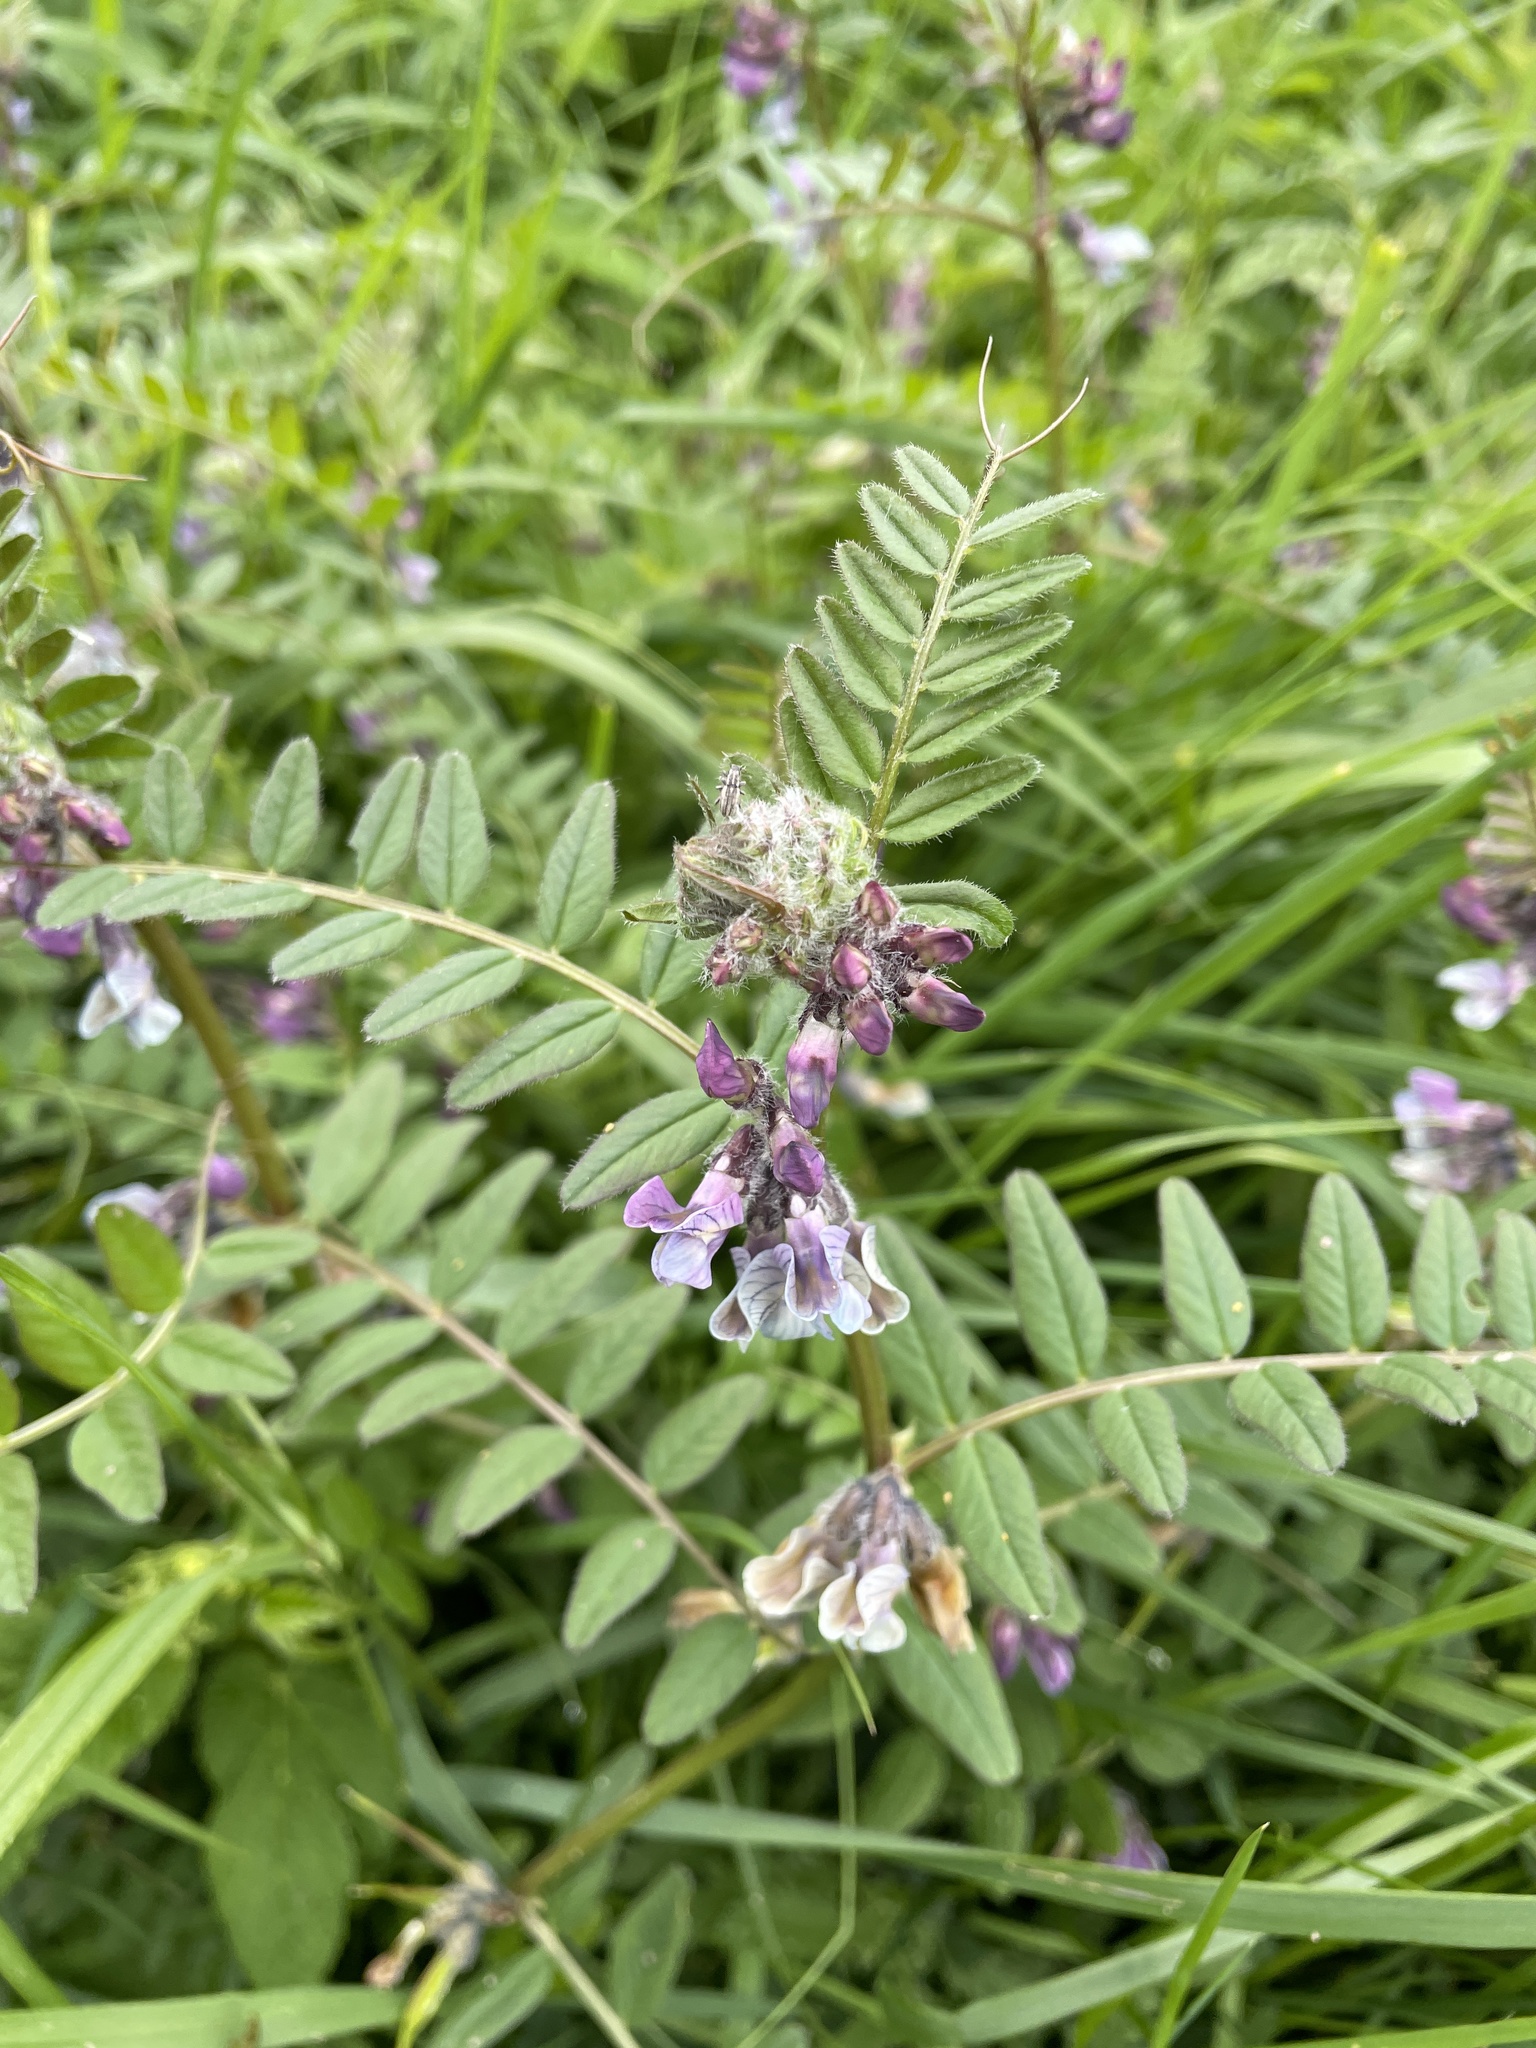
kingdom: Plantae
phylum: Tracheophyta
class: Magnoliopsida
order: Fabales
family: Fabaceae
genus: Vicia
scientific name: Vicia sepium
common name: Bush vetch
